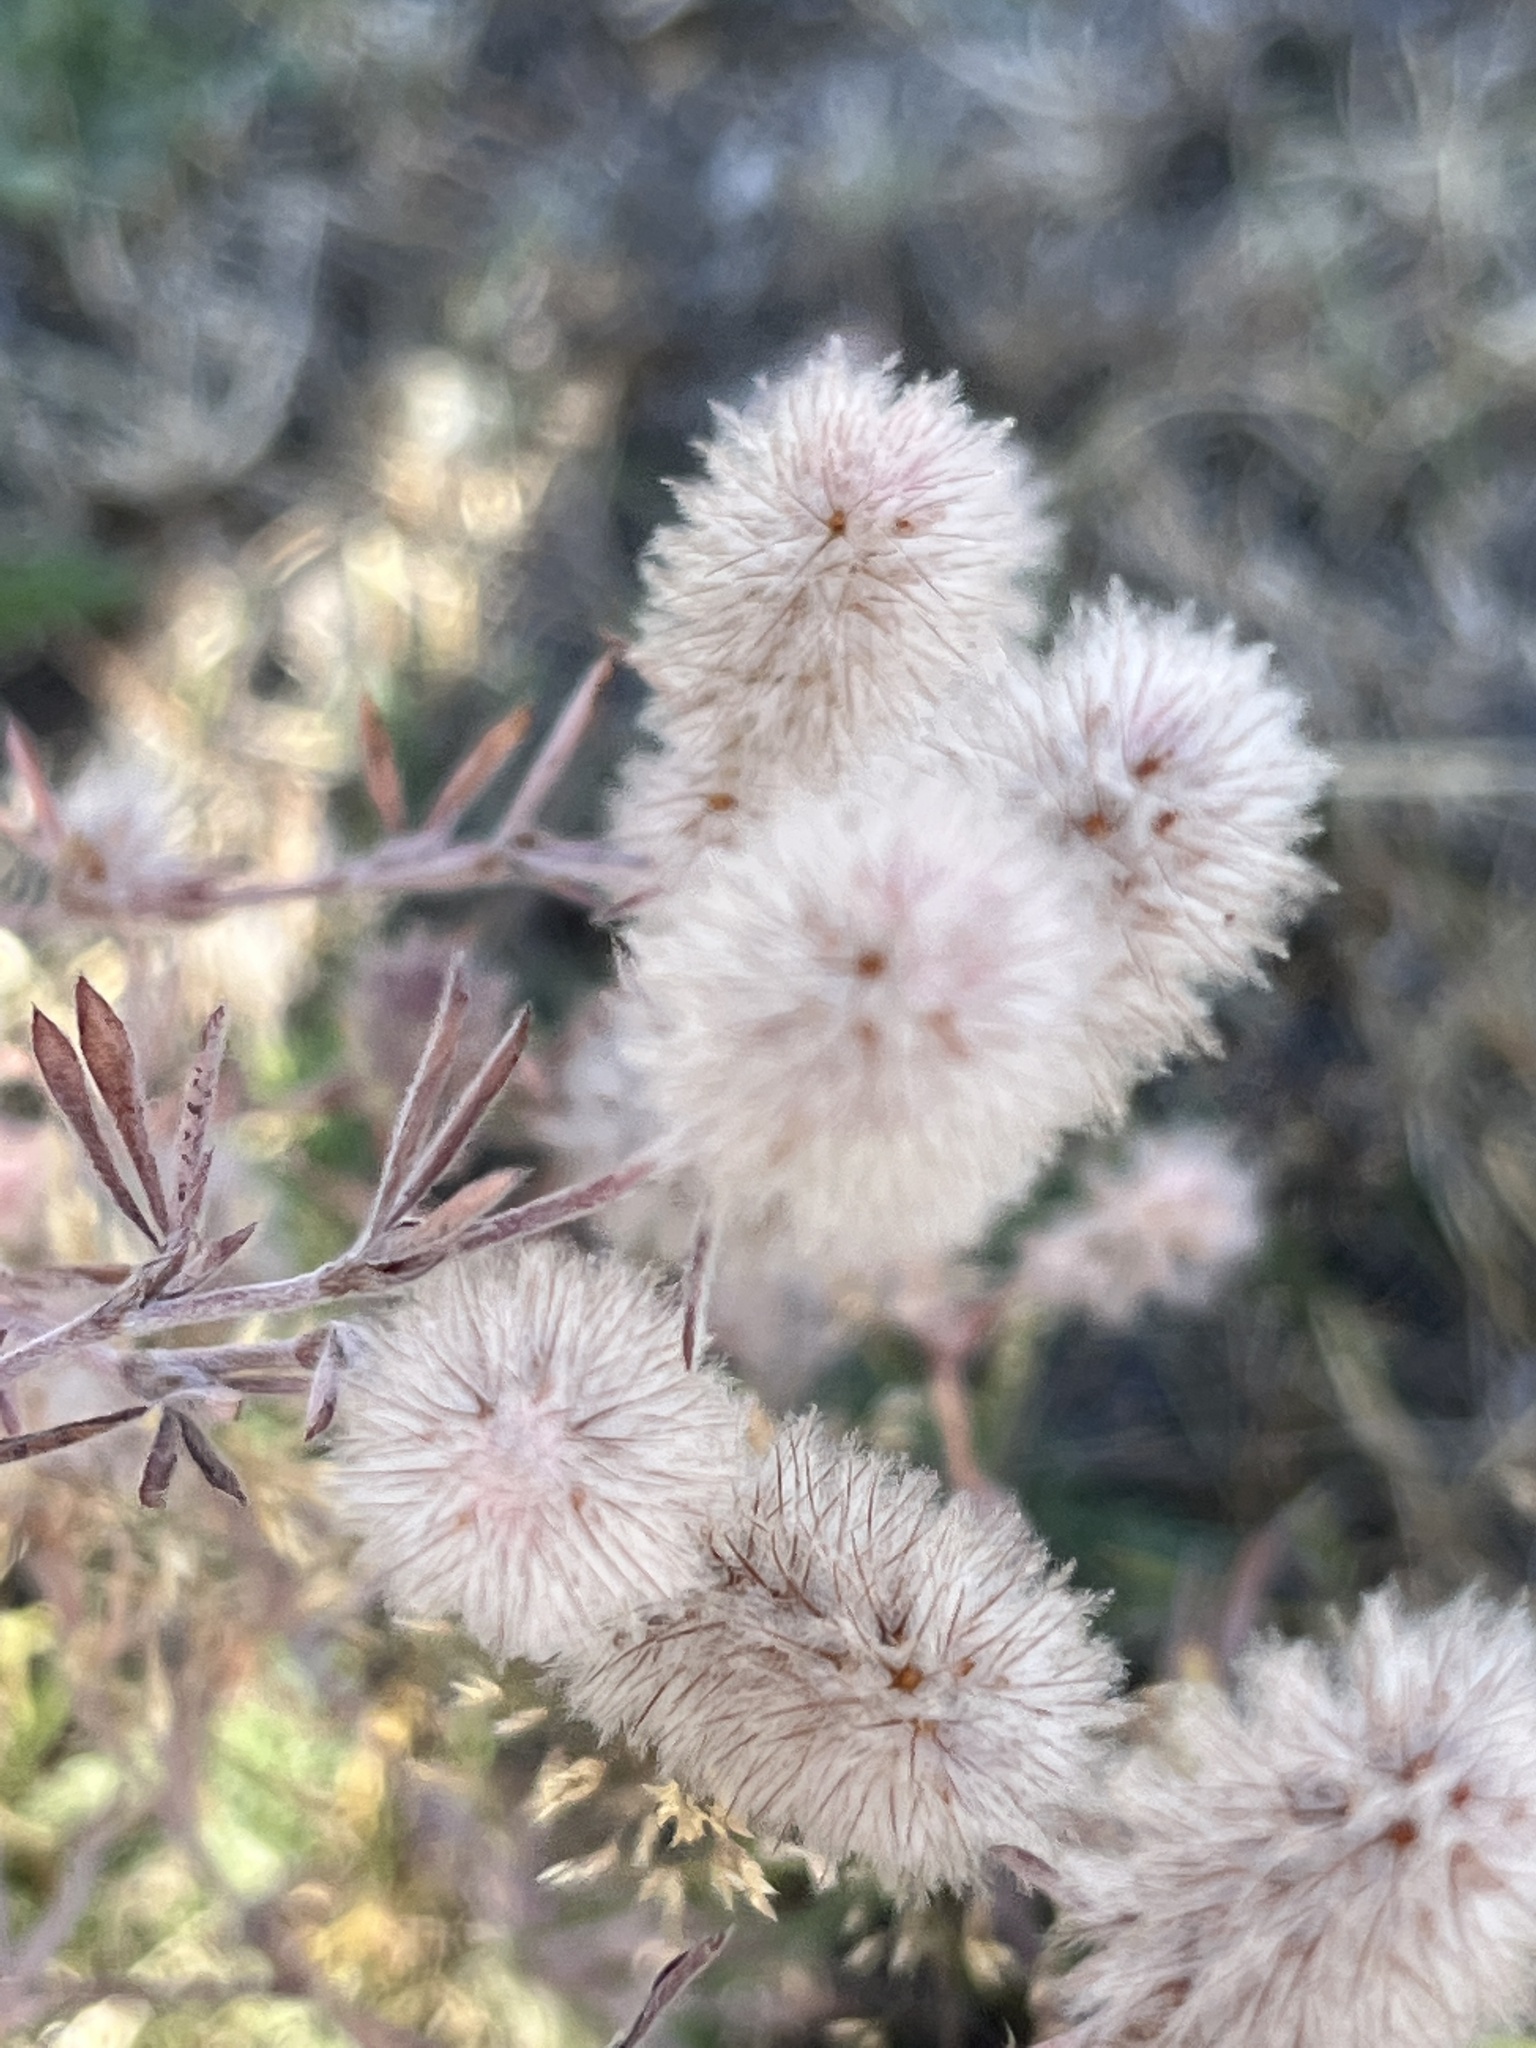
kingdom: Plantae
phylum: Tracheophyta
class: Magnoliopsida
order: Fabales
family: Fabaceae
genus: Trifolium
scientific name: Trifolium arvense
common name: Hare's-foot clover
